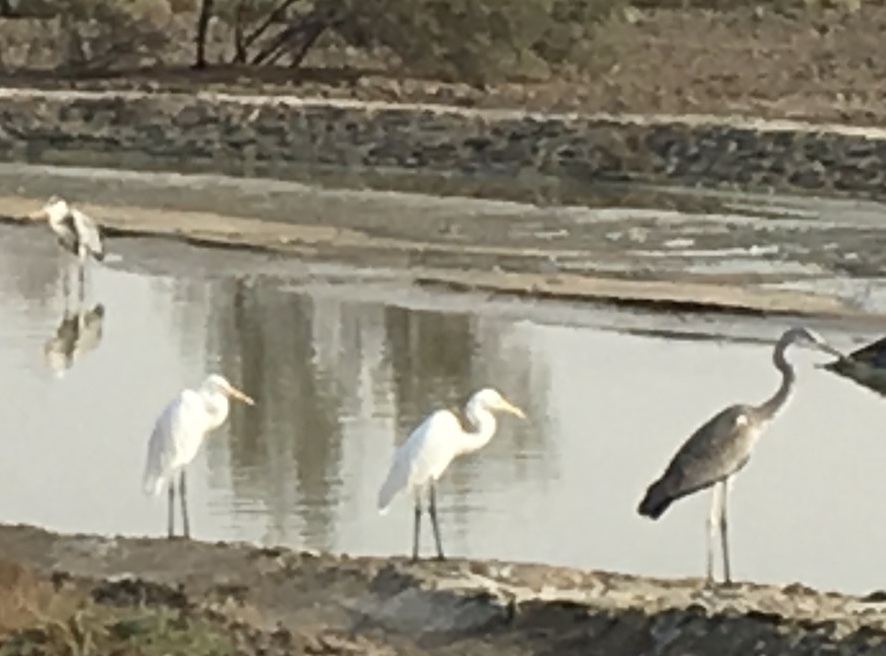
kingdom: Animalia
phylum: Chordata
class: Aves
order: Pelecaniformes
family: Ardeidae
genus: Ardea
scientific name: Ardea cinerea
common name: Grey heron
